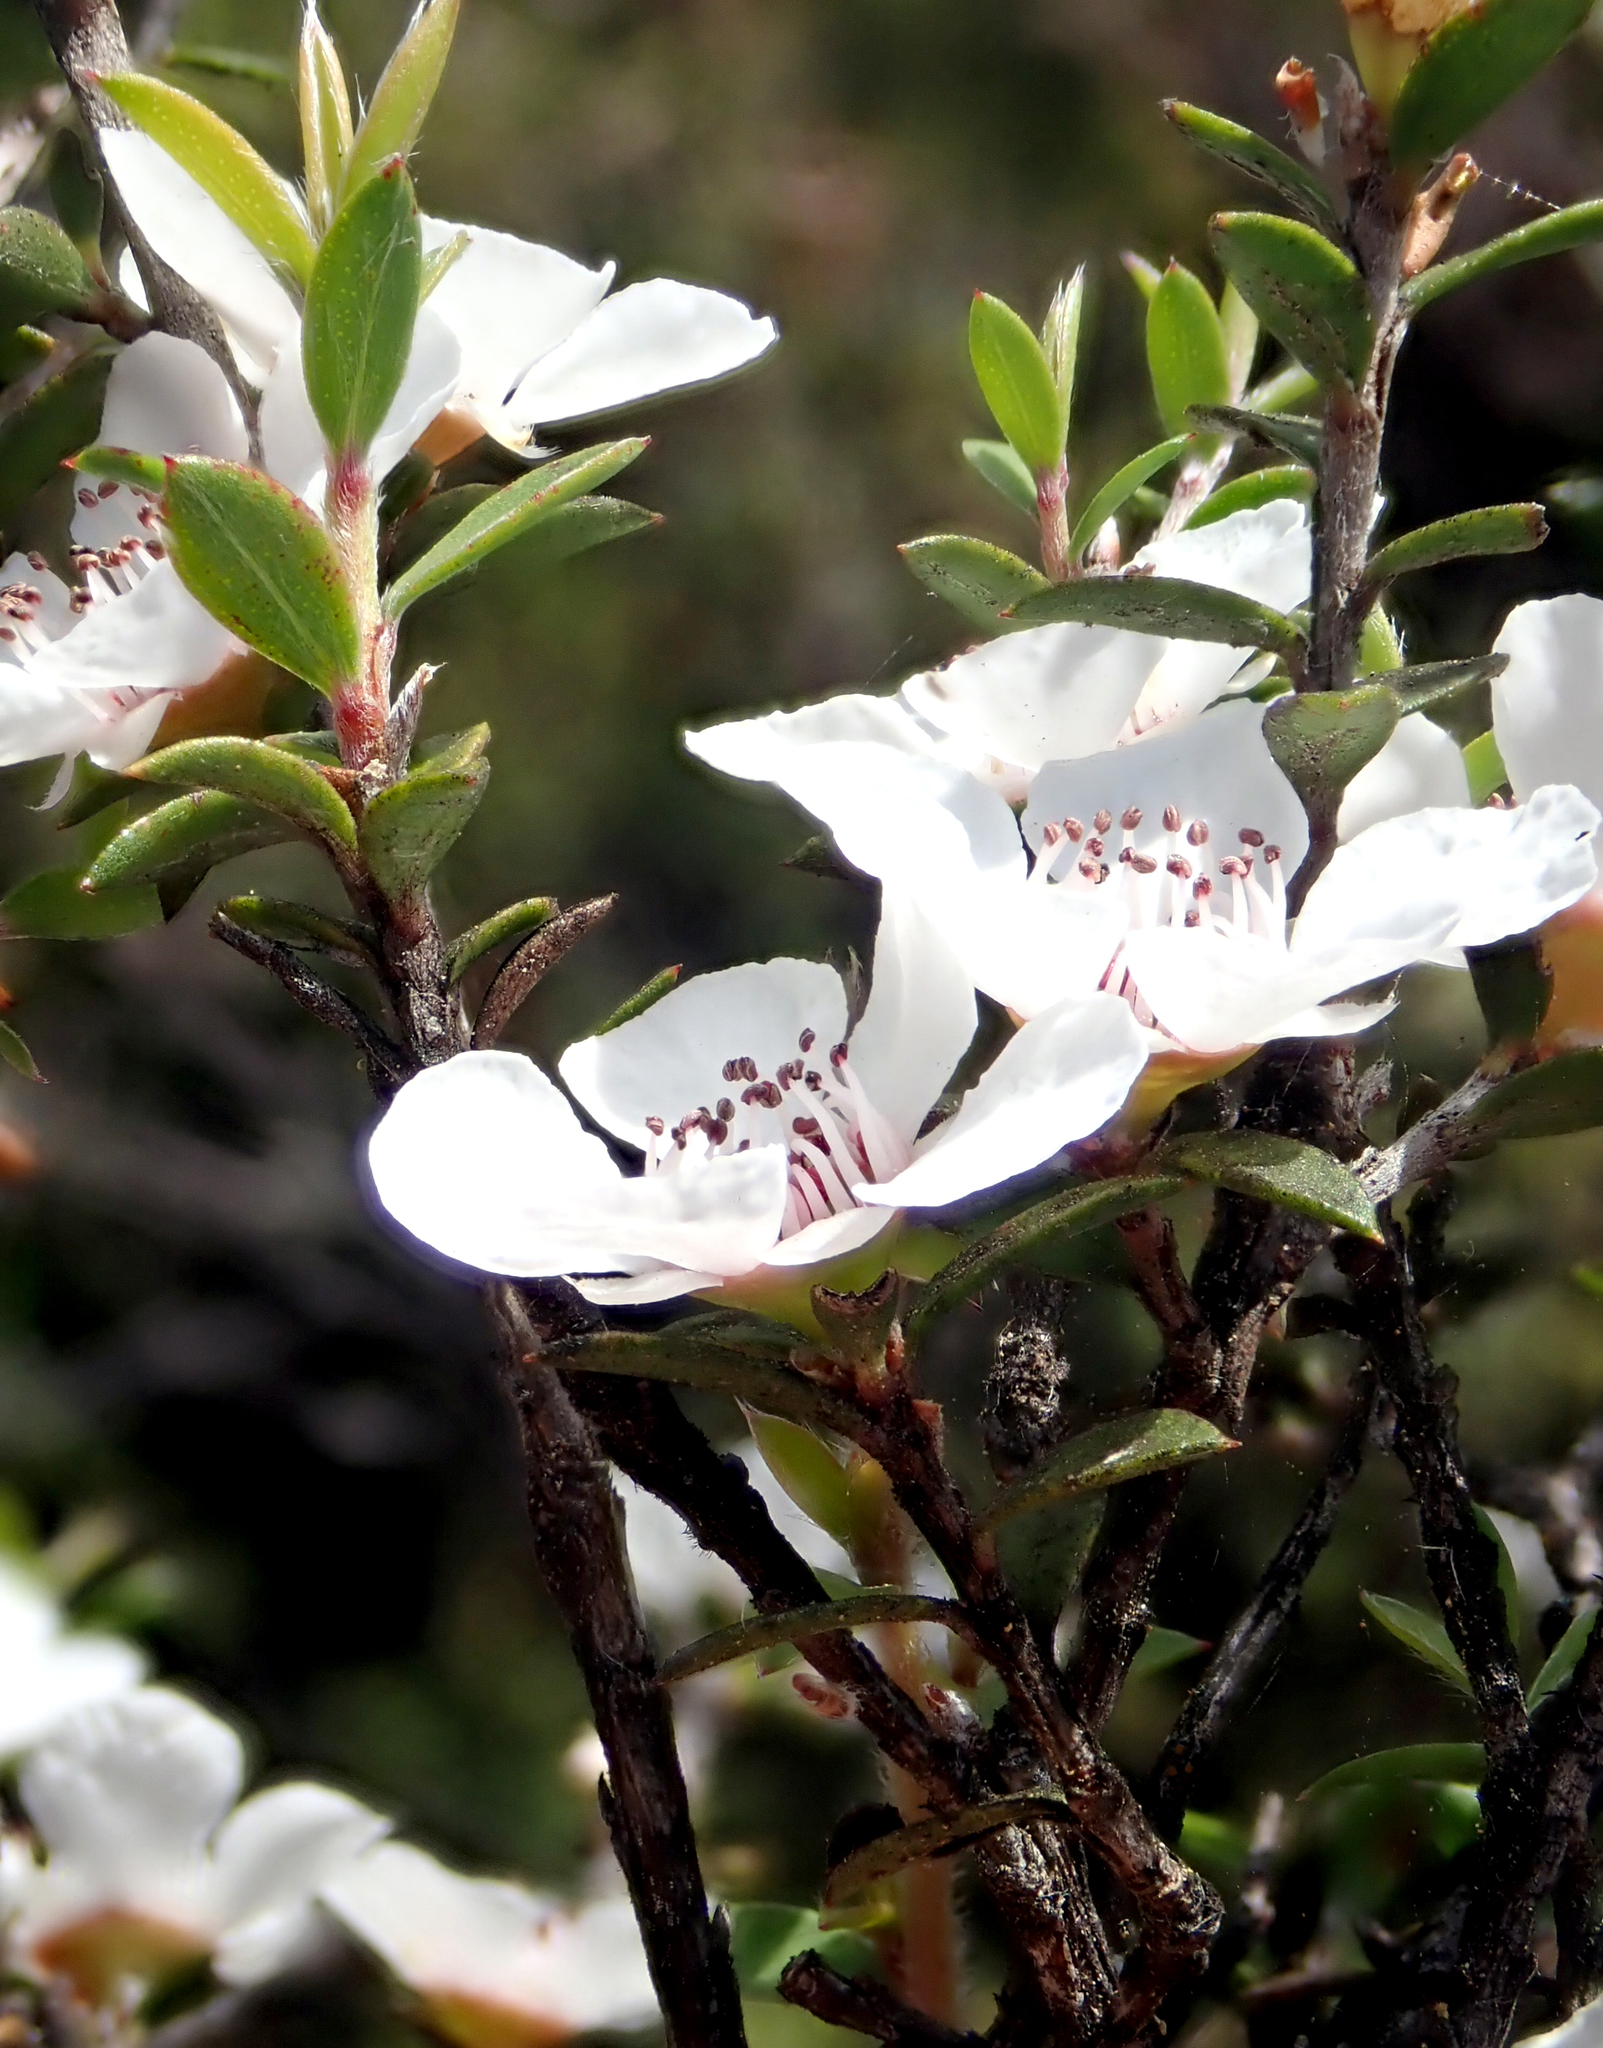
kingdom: Plantae
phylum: Tracheophyta
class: Magnoliopsida
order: Myrtales
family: Myrtaceae
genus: Leptospermum
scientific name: Leptospermum scoparium
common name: Broom tea-tree
